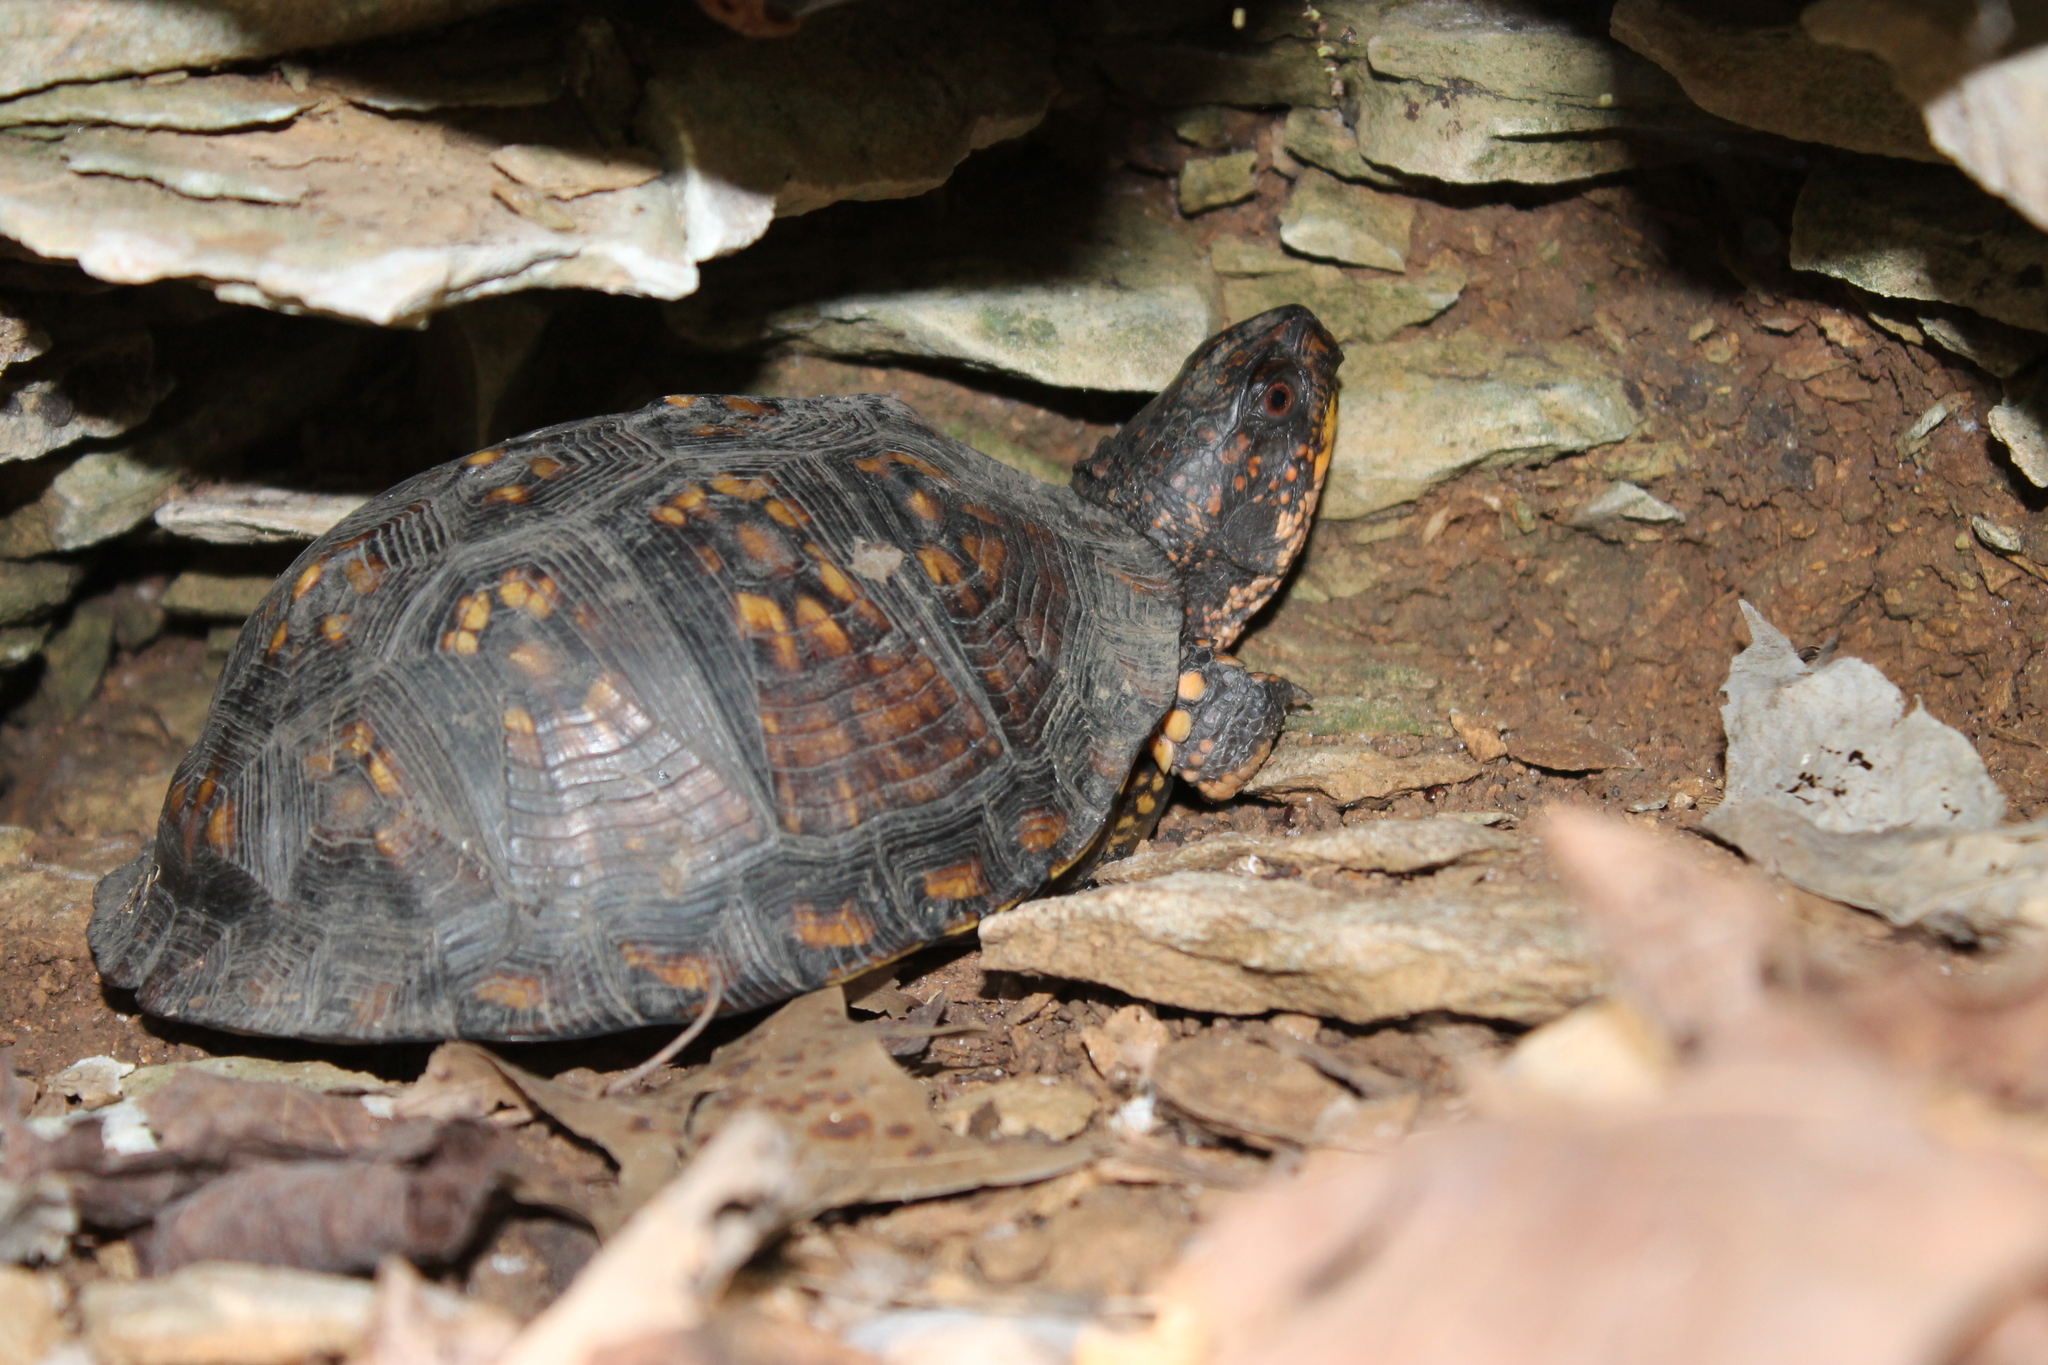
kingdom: Animalia
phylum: Chordata
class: Testudines
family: Emydidae
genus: Terrapene
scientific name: Terrapene carolina
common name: Common box turtle
